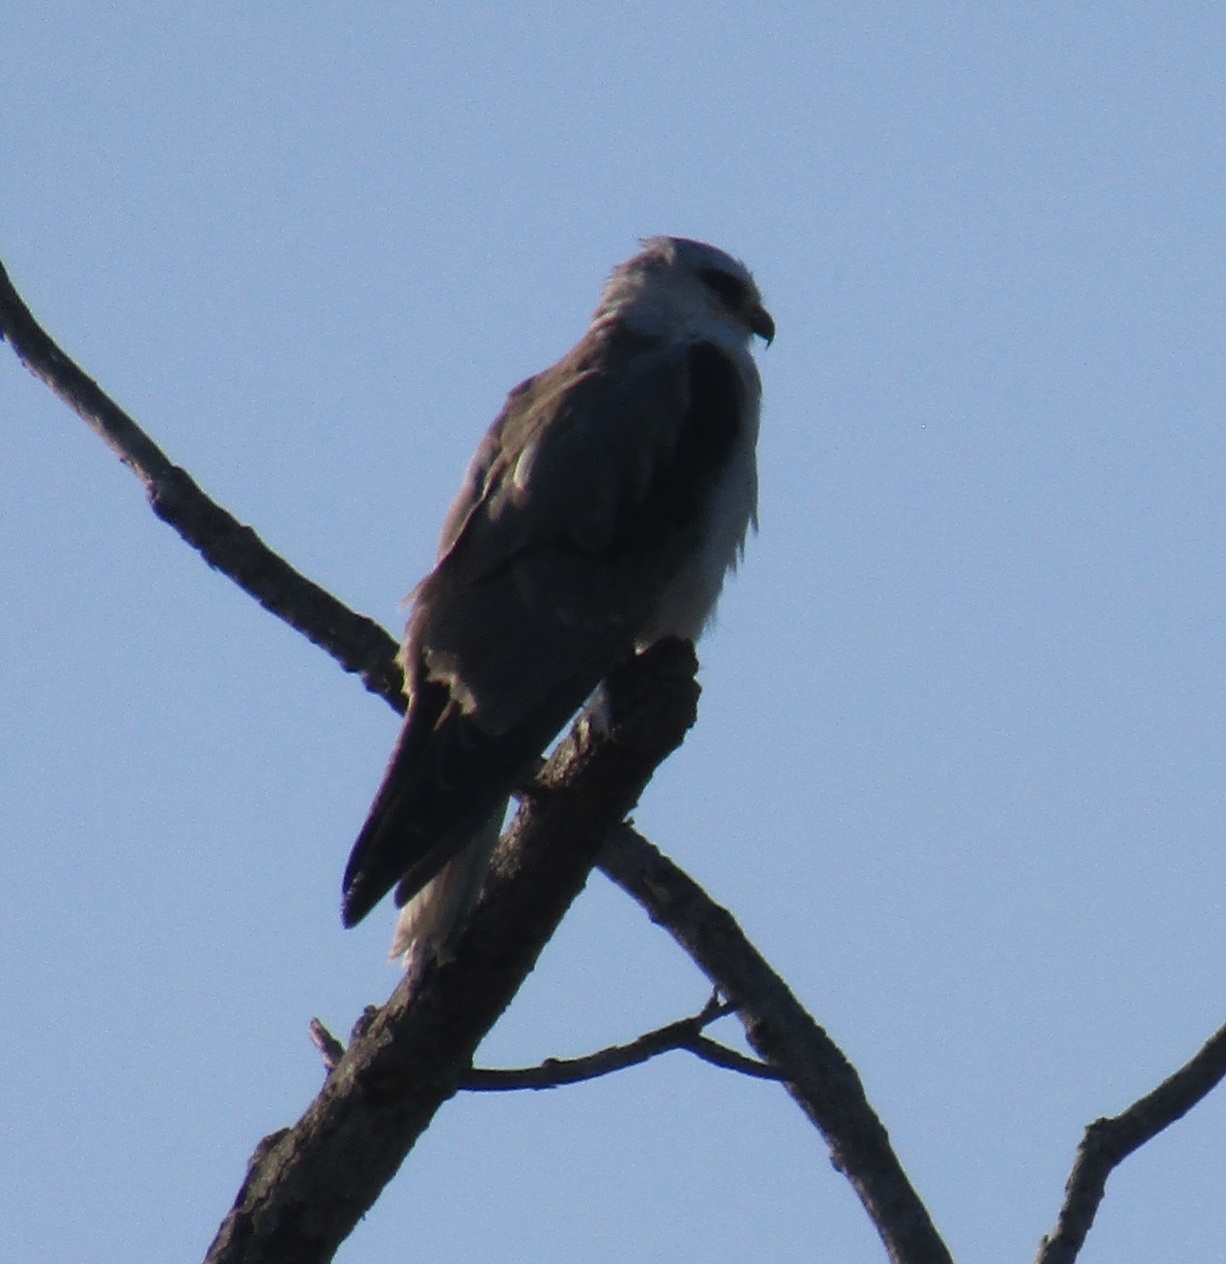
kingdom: Animalia
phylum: Chordata
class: Aves
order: Accipitriformes
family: Accipitridae
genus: Elanus
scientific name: Elanus leucurus
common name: White-tailed kite
